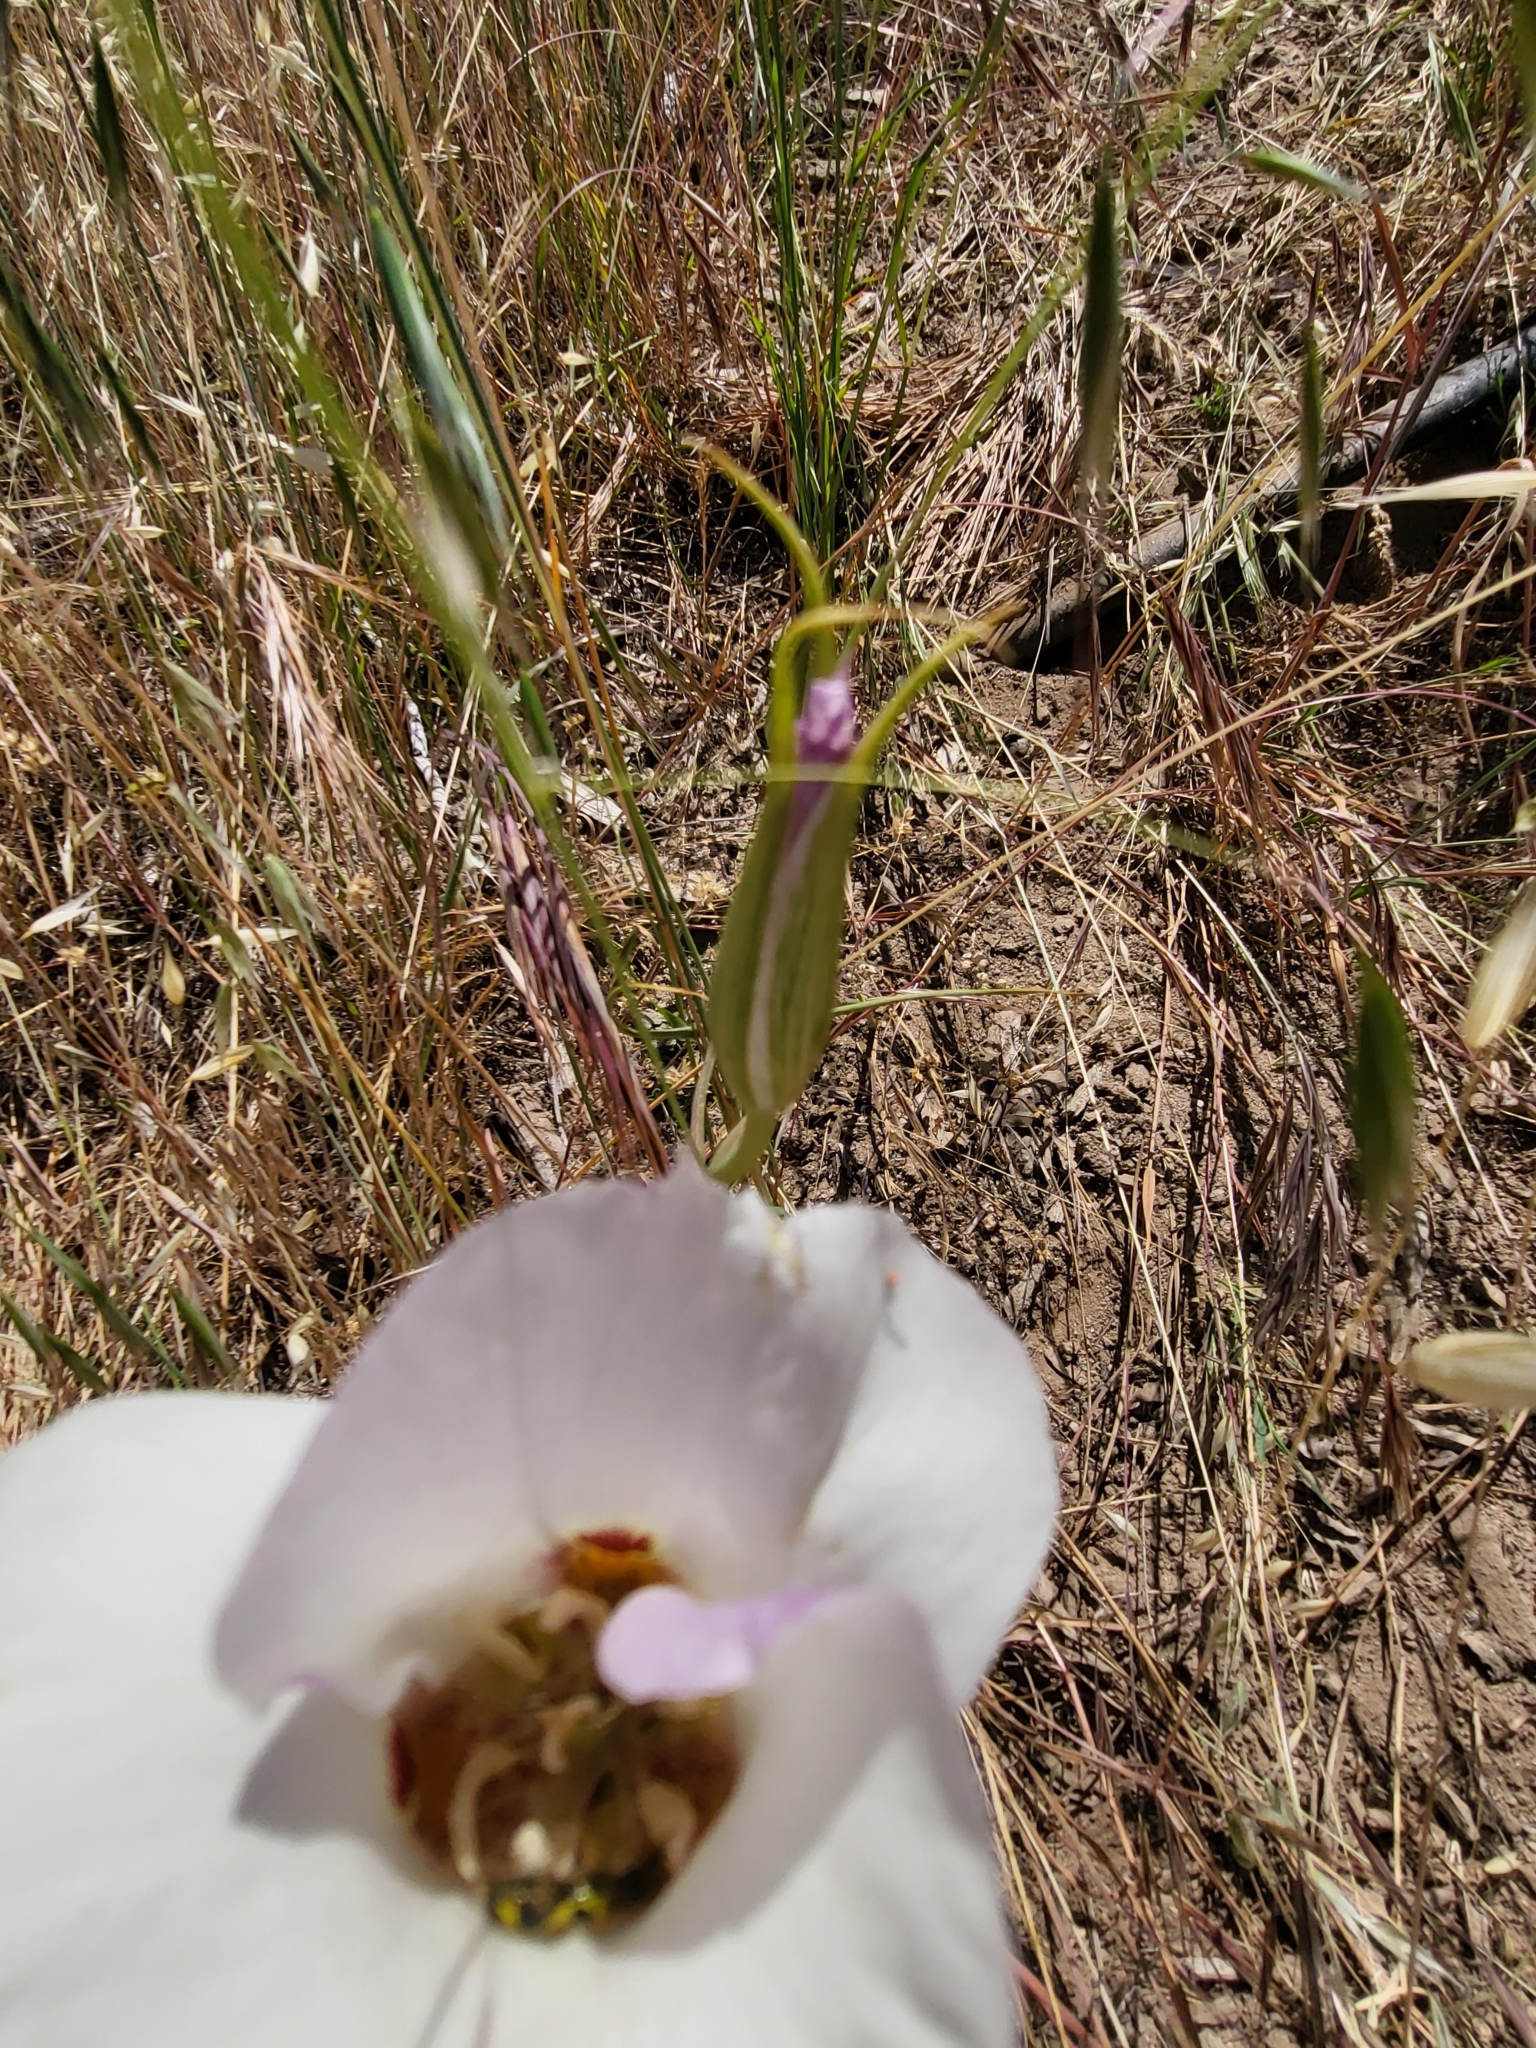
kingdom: Plantae
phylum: Tracheophyta
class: Liliopsida
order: Liliales
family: Liliaceae
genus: Calochortus
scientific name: Calochortus venustus
